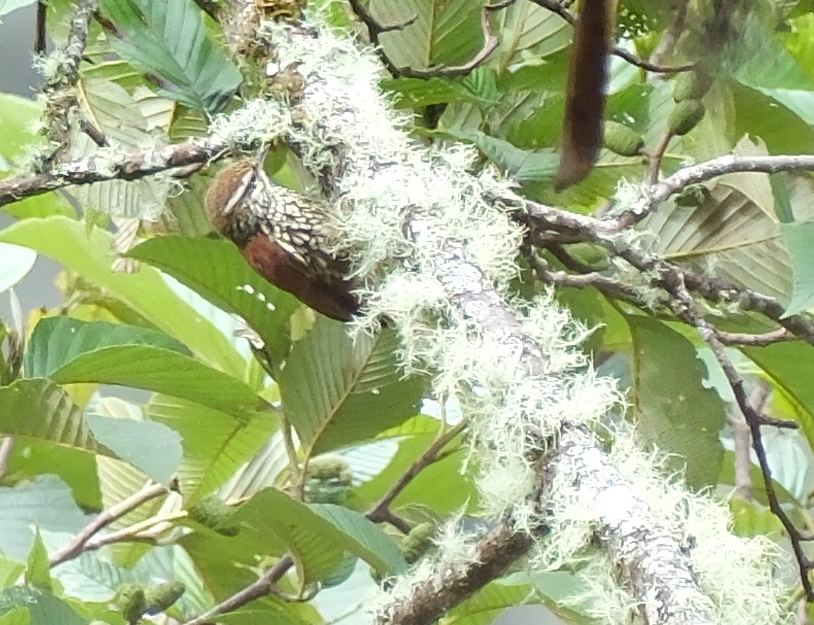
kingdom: Animalia
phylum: Chordata
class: Aves
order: Passeriformes
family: Furnariidae
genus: Margarornis
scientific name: Margarornis squamiger
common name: Pearled treerunner
